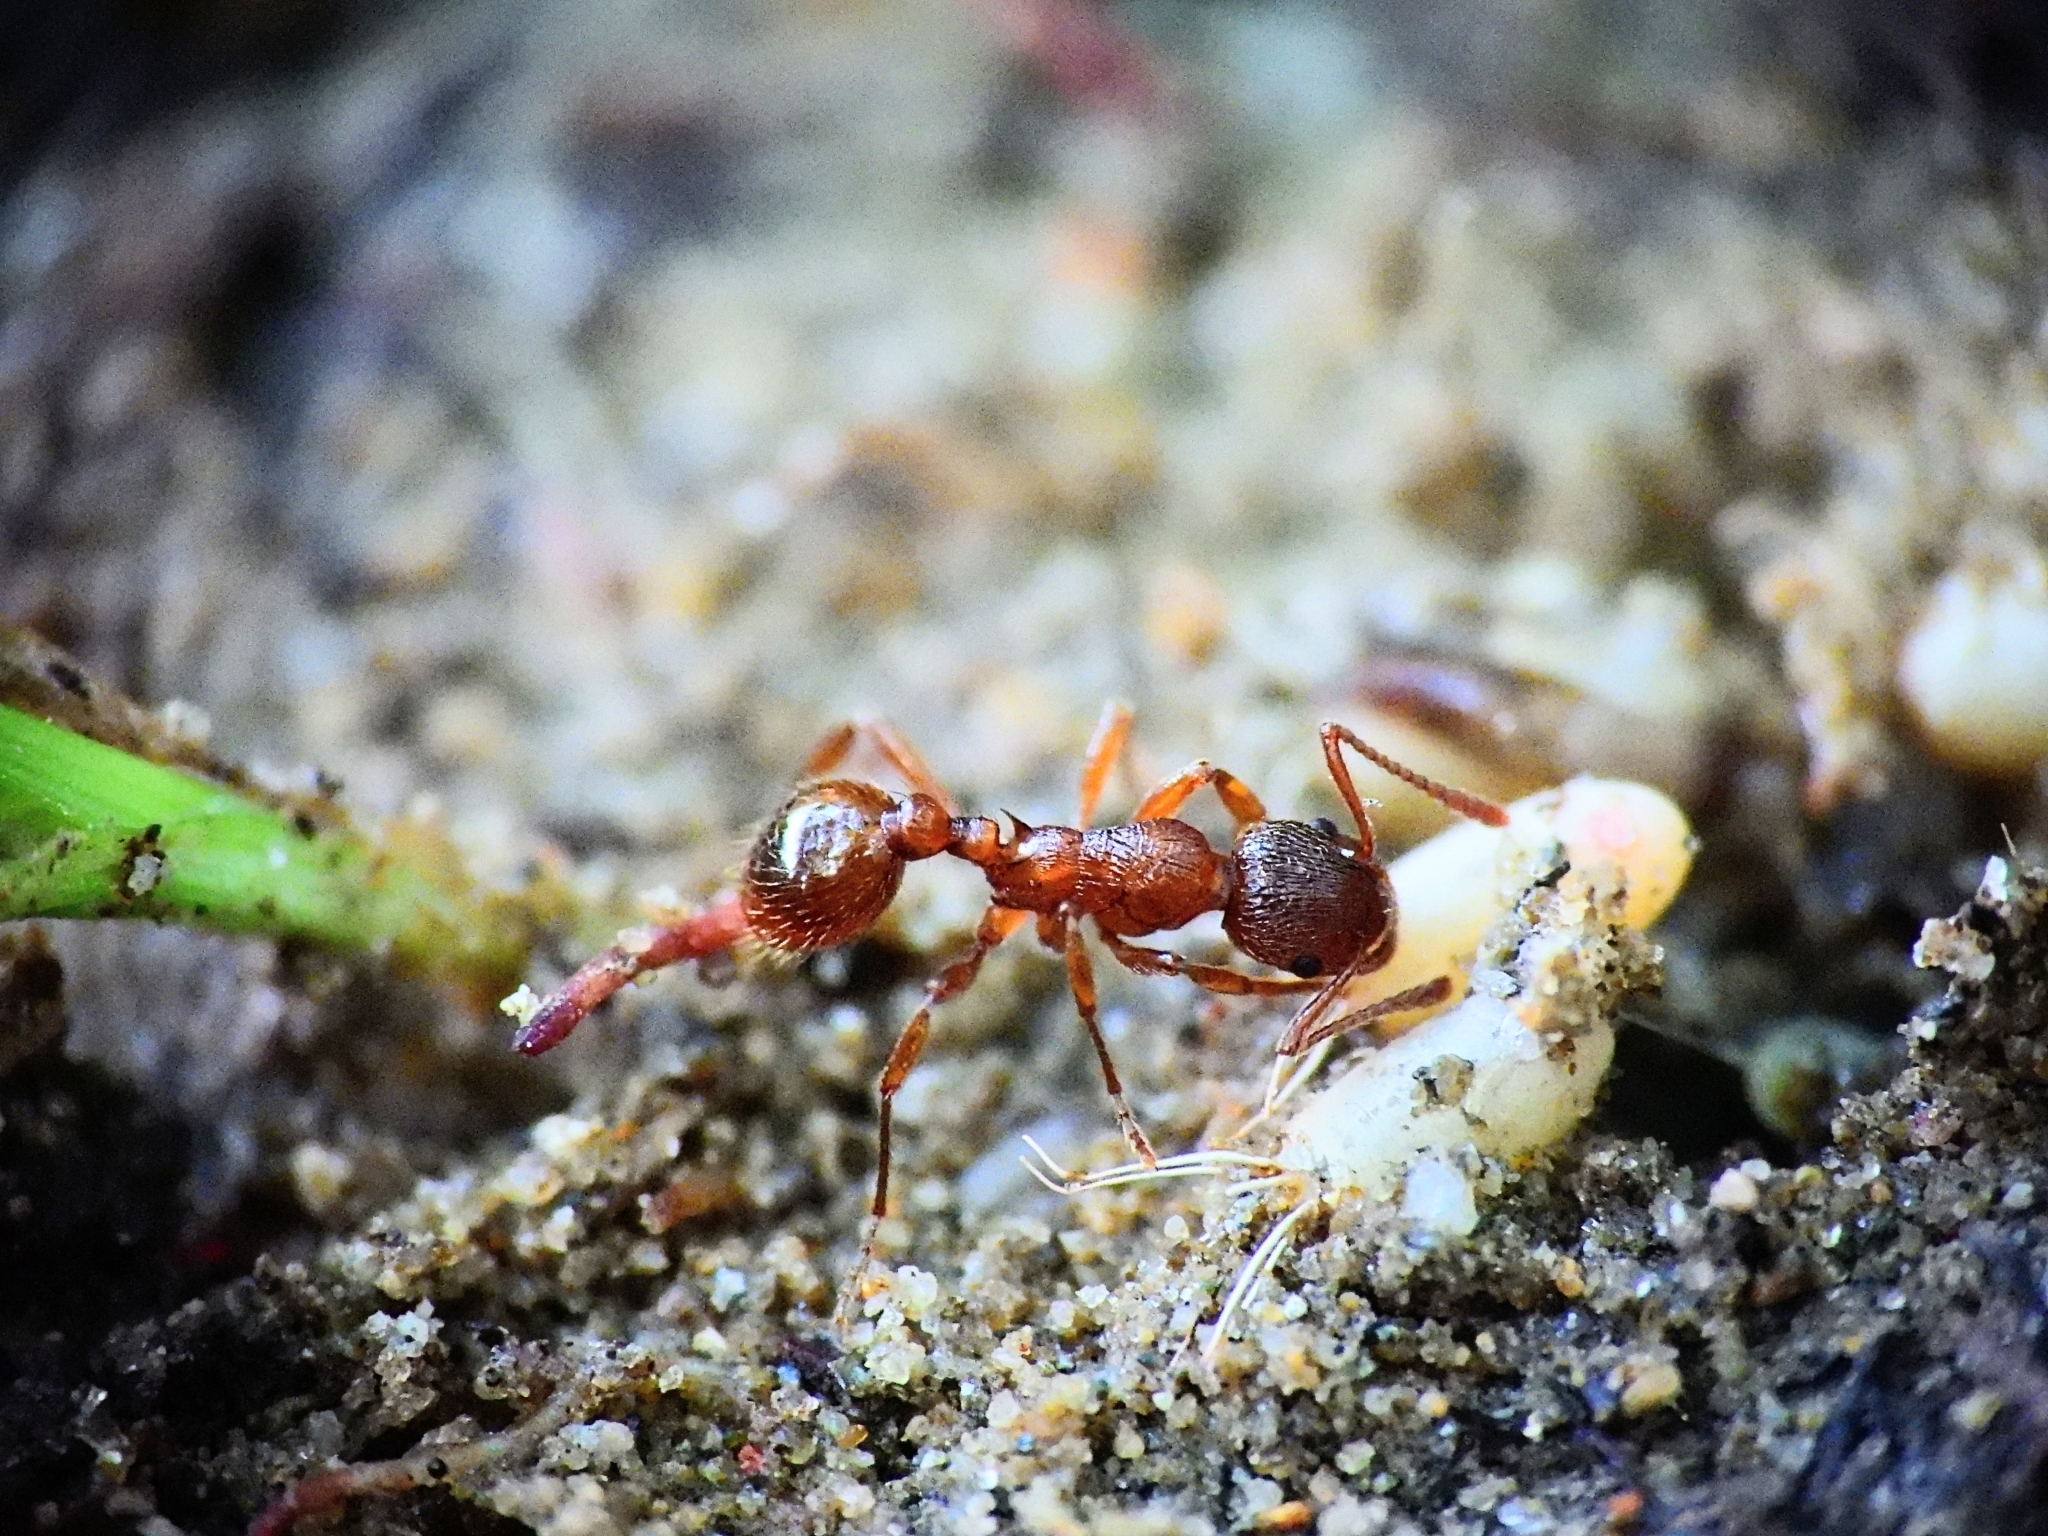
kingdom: Animalia
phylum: Arthropoda
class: Insecta
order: Hymenoptera
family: Formicidae
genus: Myrmica
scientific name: Myrmica rubra
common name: European fire ant
